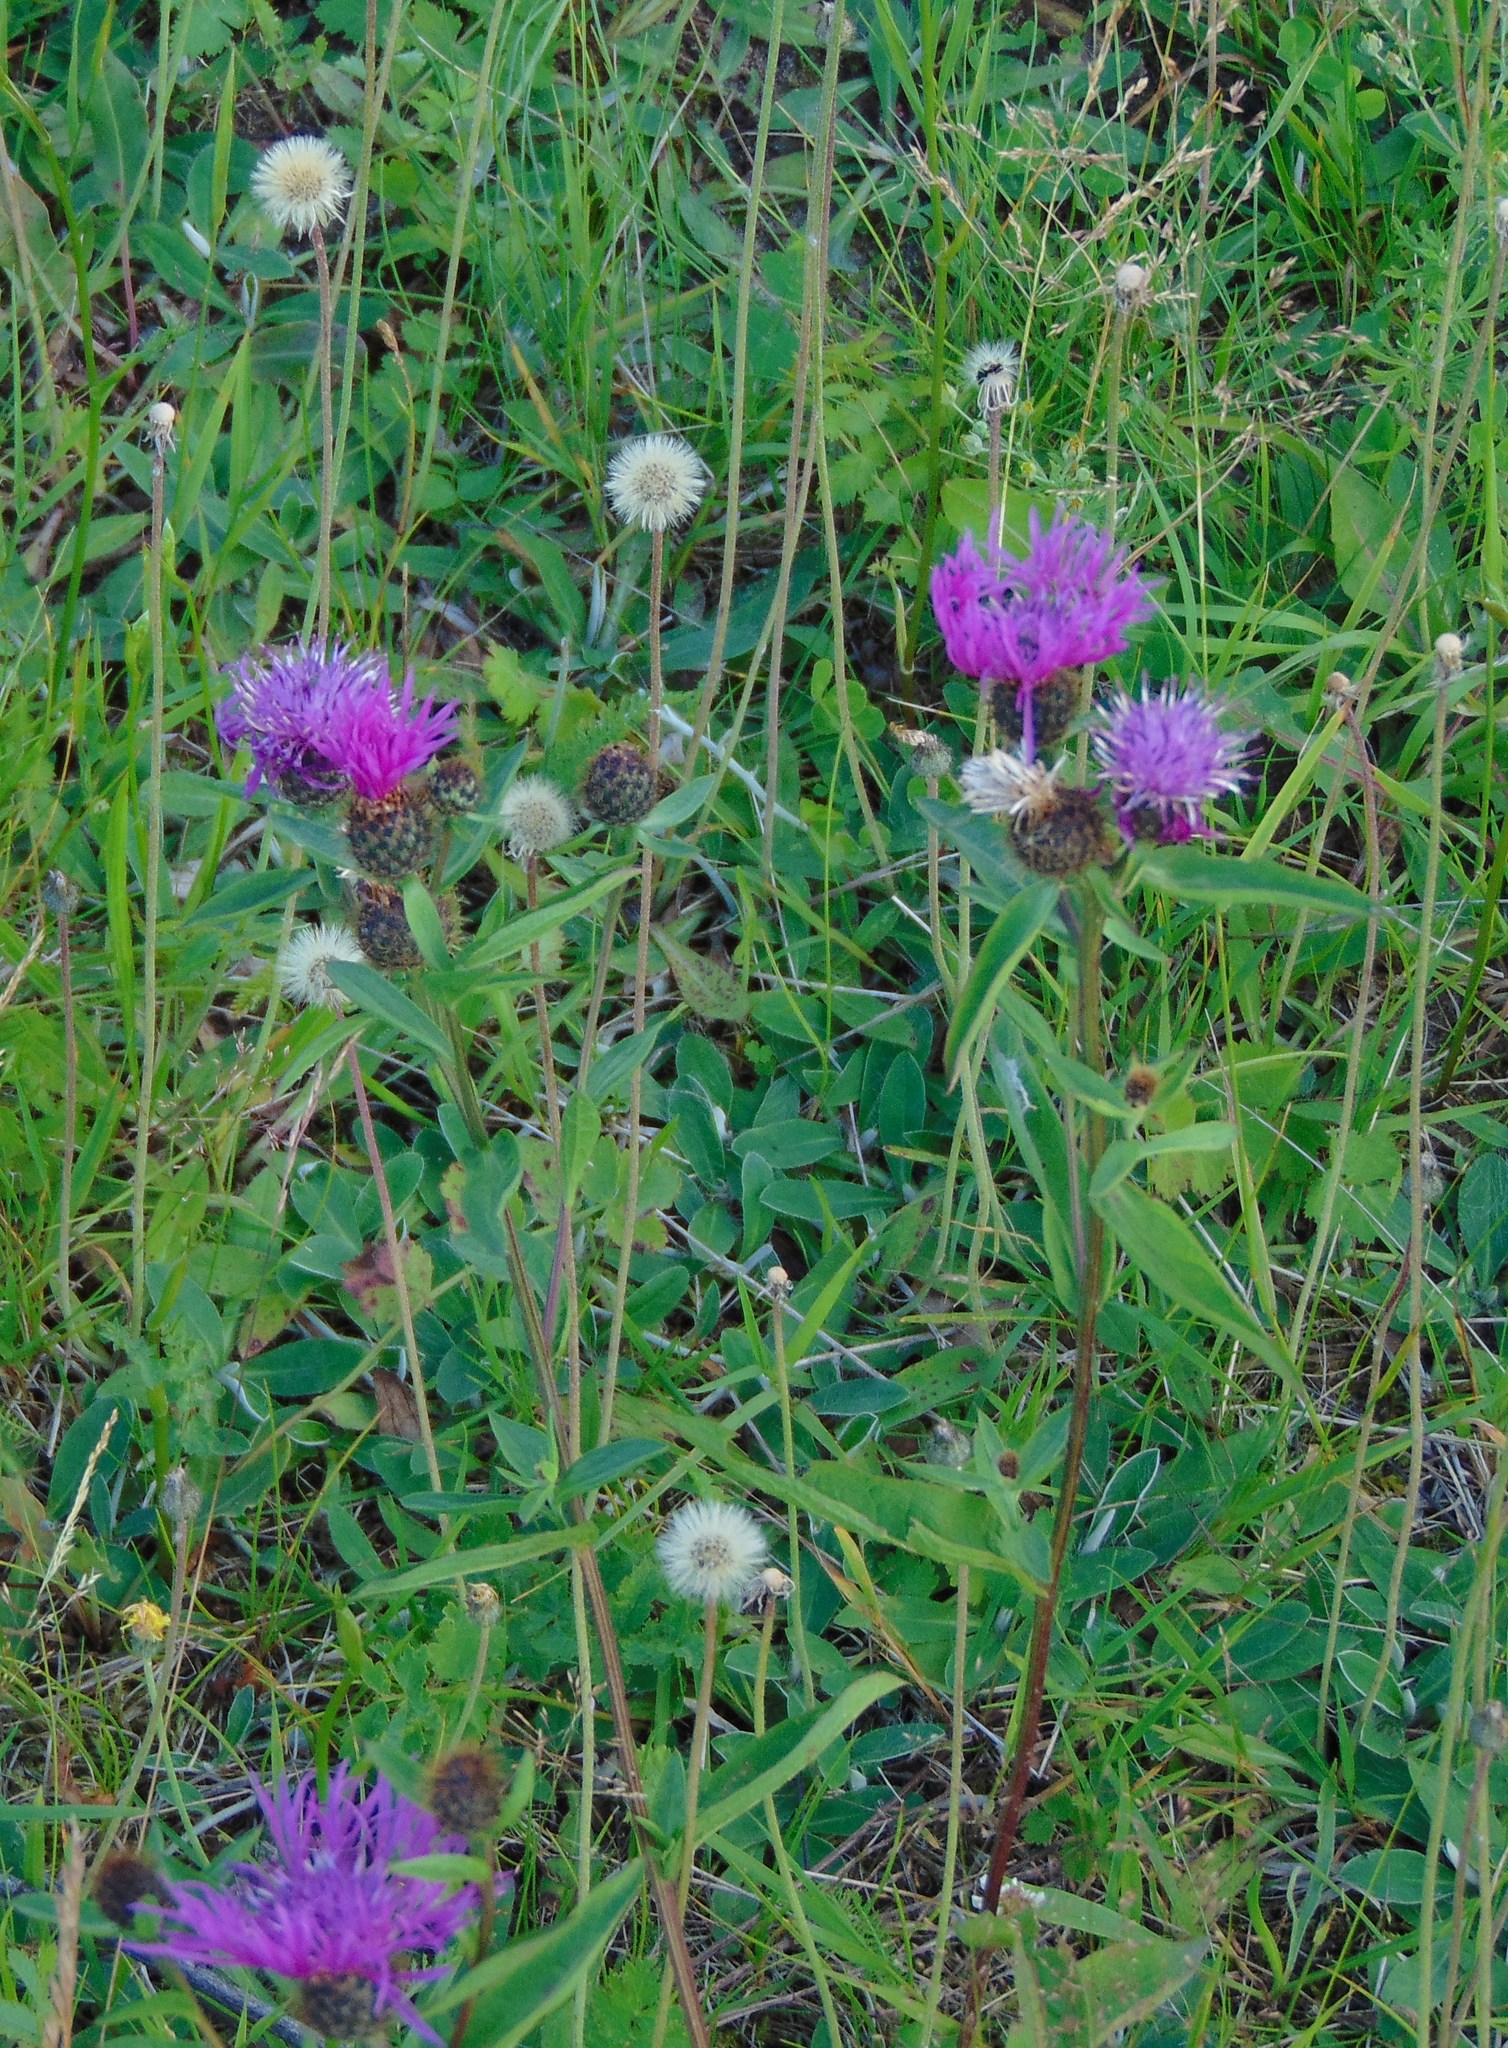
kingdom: Plantae
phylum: Tracheophyta
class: Magnoliopsida
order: Asterales
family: Asteraceae
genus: Centaurea
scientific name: Centaurea phrygia
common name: Wig knapweed
